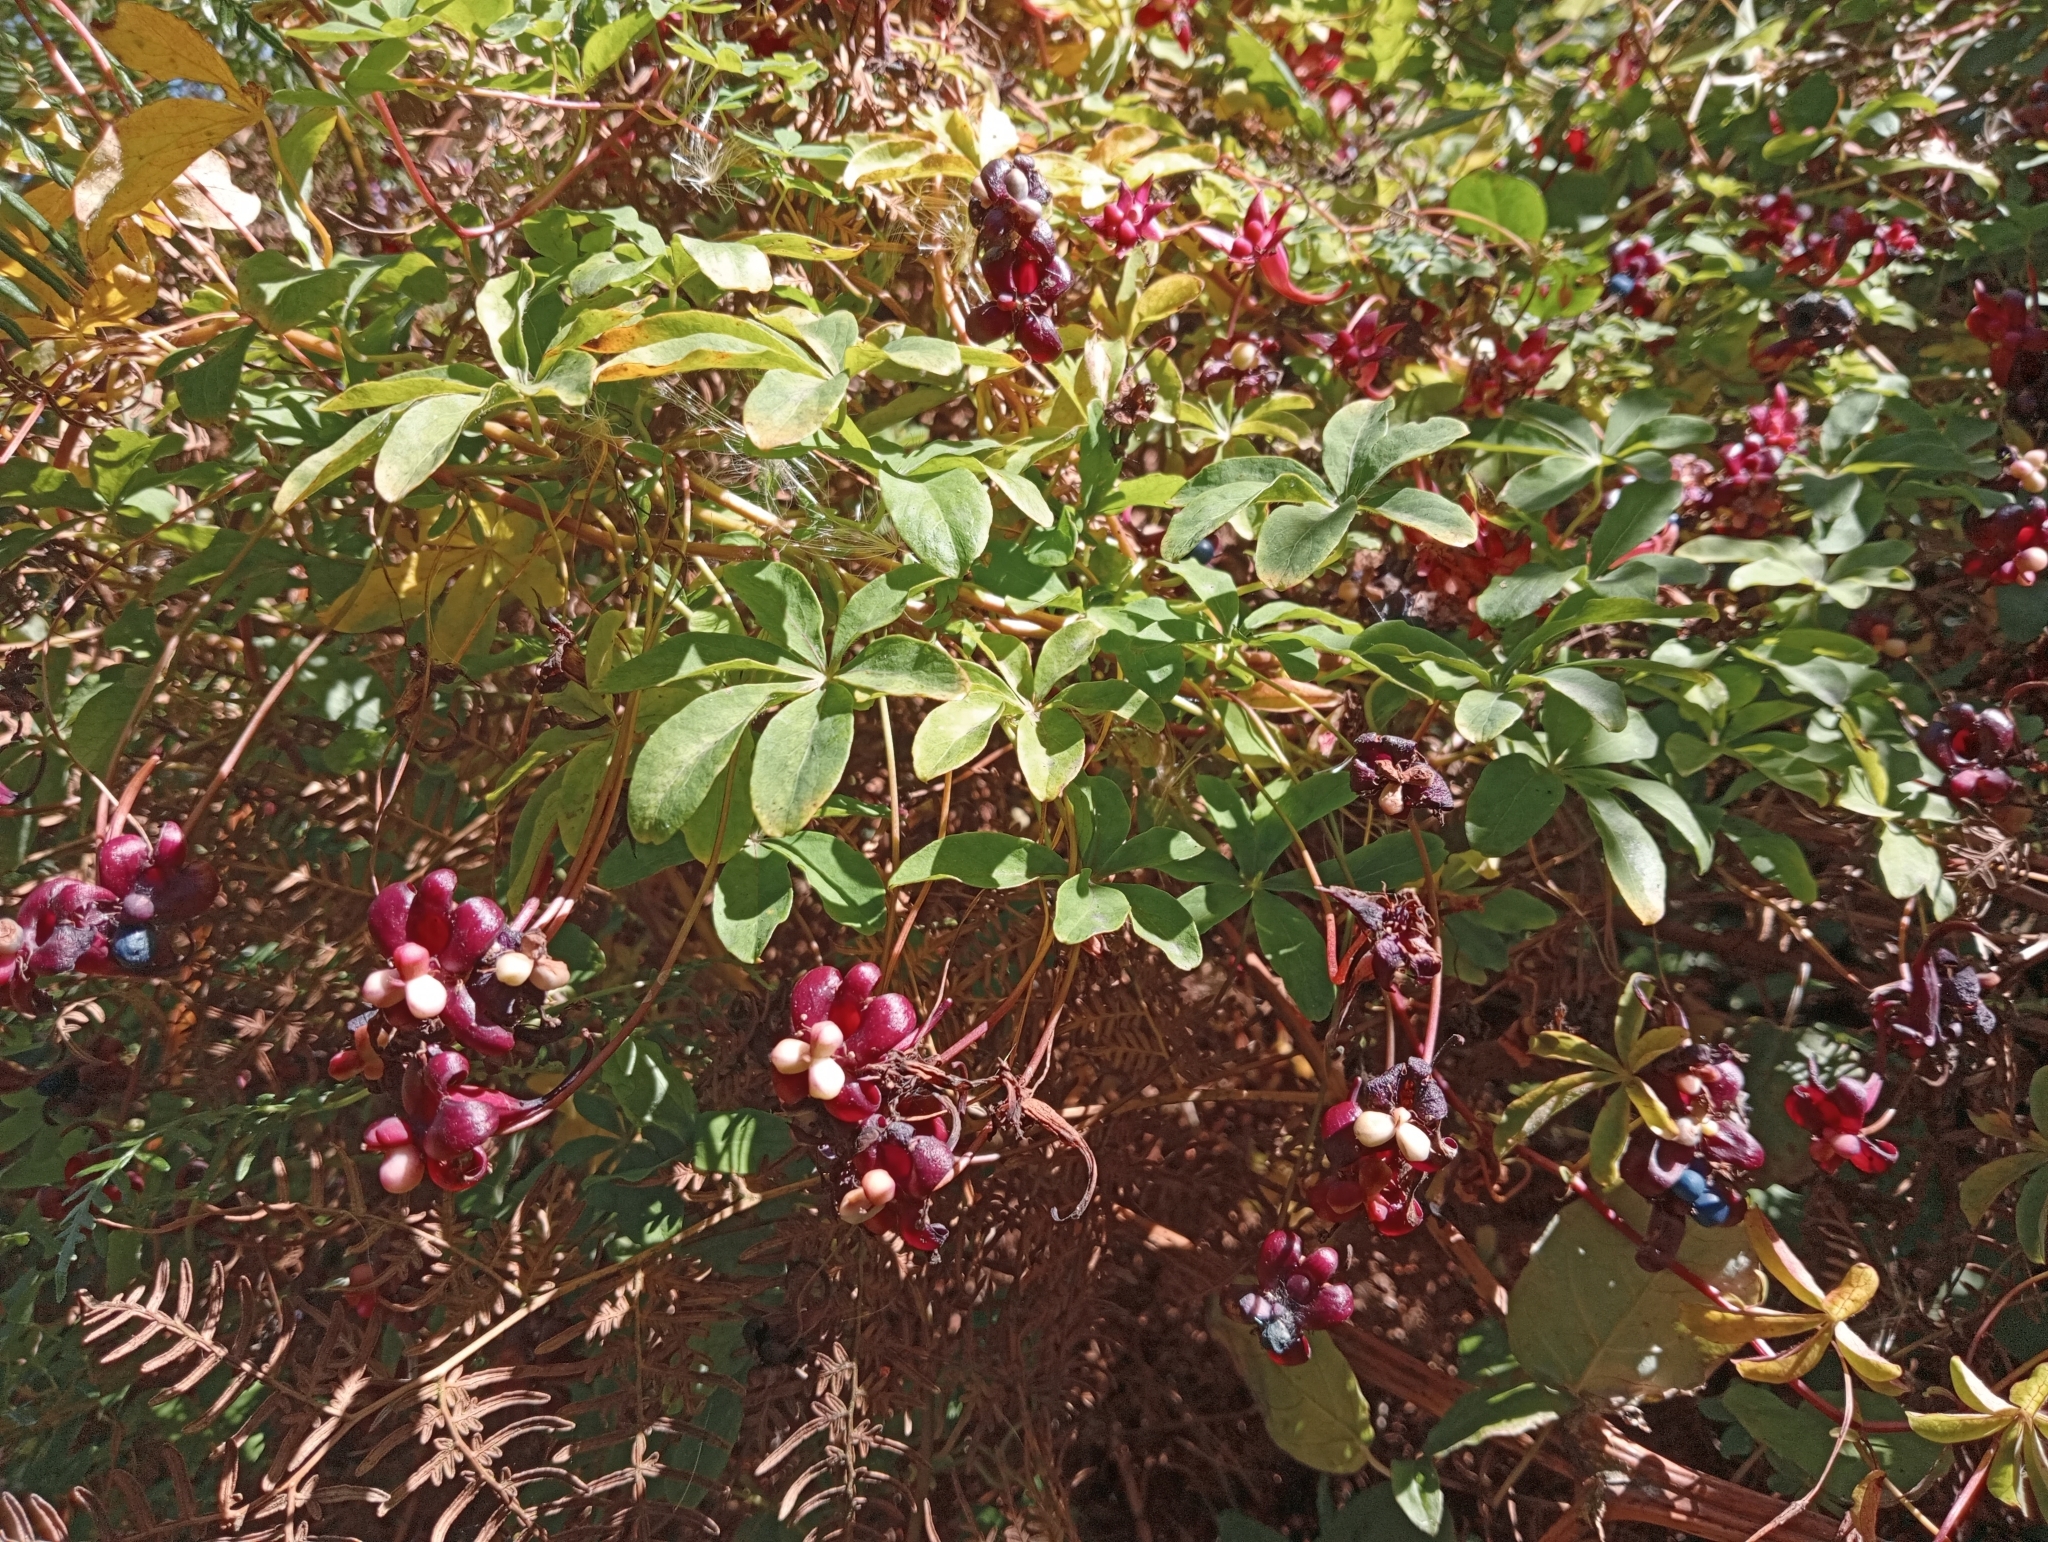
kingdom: Plantae
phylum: Tracheophyta
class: Magnoliopsida
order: Brassicales
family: Tropaeolaceae
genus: Tropaeolum
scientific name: Tropaeolum speciosum
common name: Flame nasturtium
